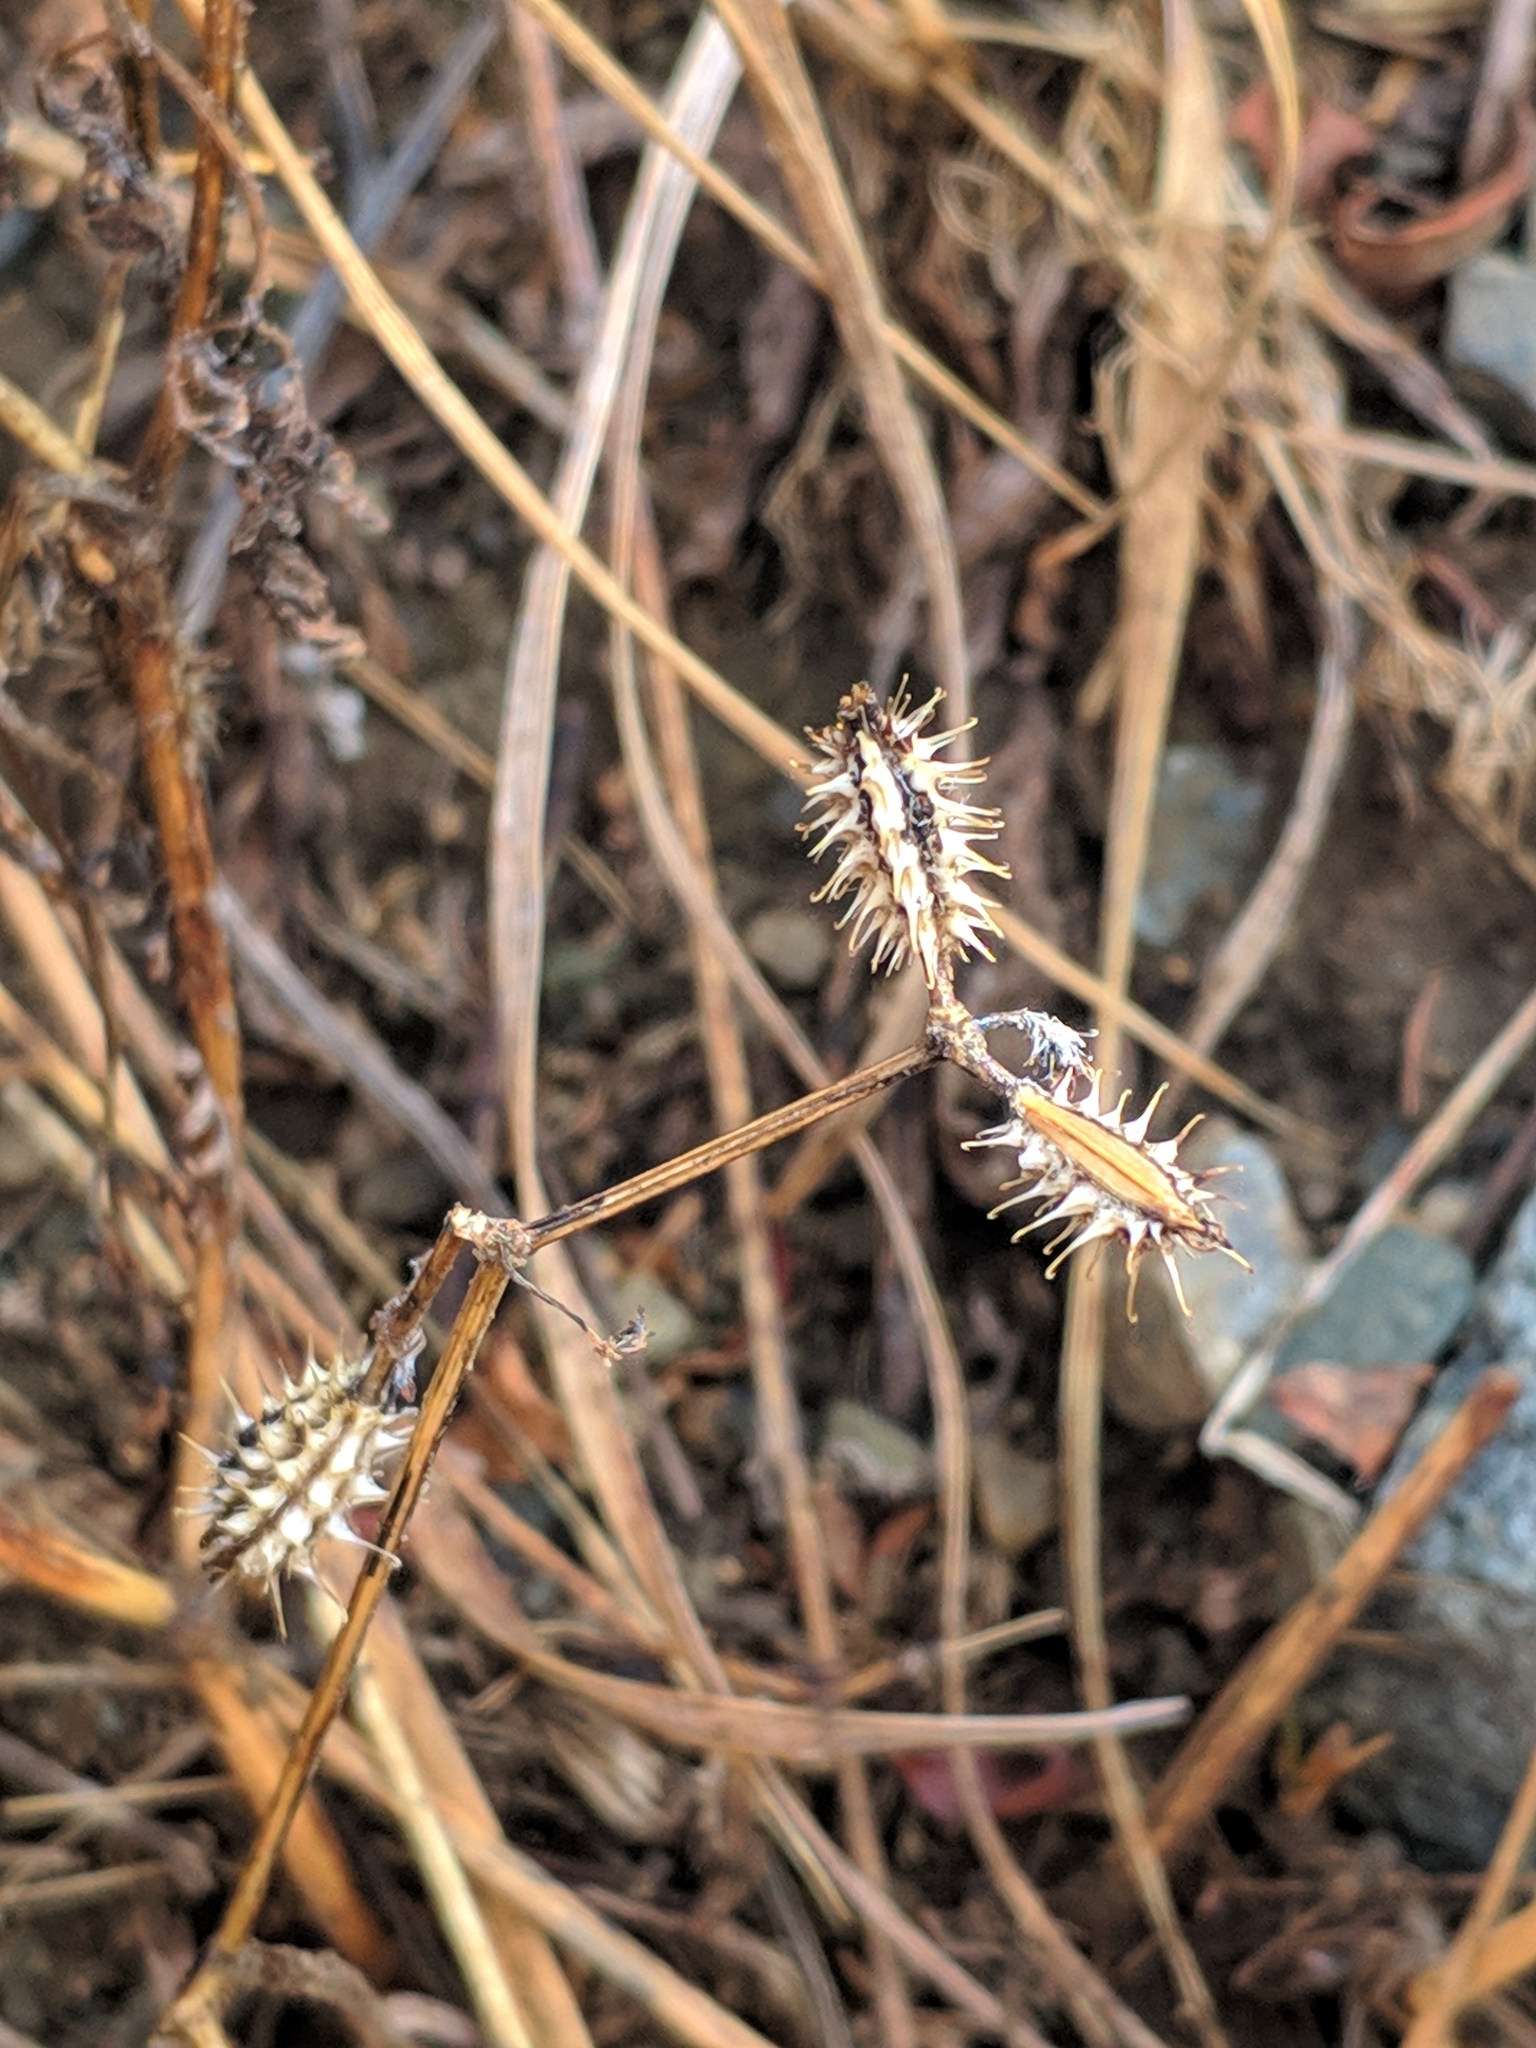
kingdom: Plantae
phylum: Tracheophyta
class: Magnoliopsida
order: Apiales
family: Apiaceae
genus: Caucalis
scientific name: Caucalis platycarpos
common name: Small bur-parsley
